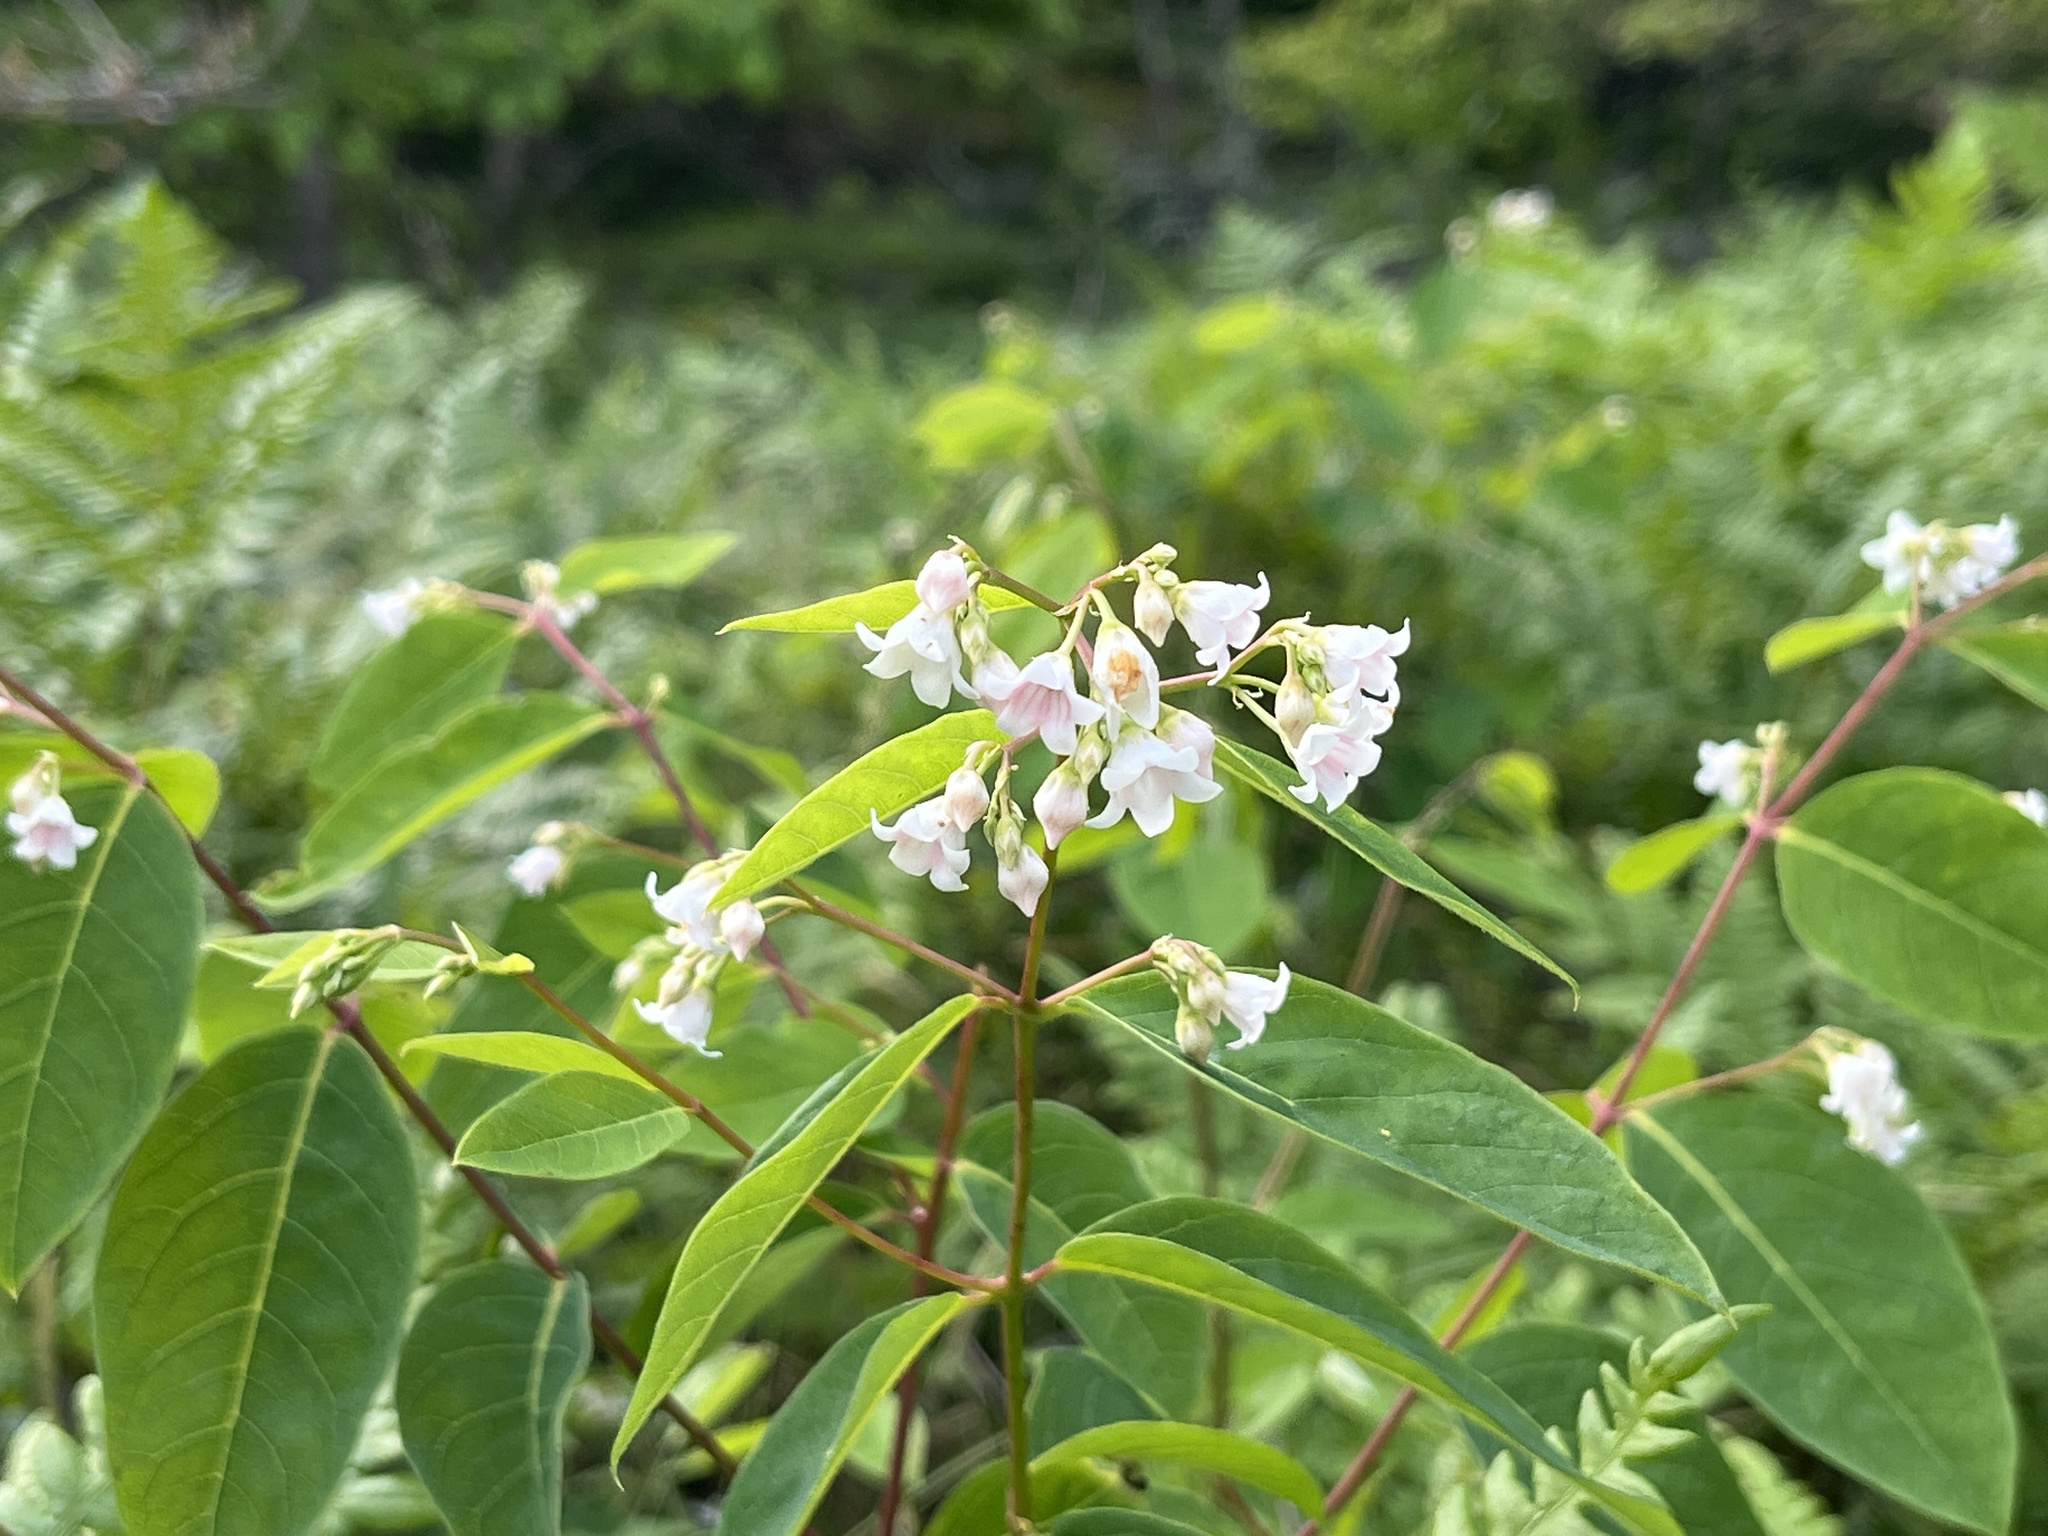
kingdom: Plantae
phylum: Tracheophyta
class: Magnoliopsida
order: Gentianales
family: Apocynaceae
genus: Apocynum
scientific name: Apocynum androsaemifolium
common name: Spreading dogbane
